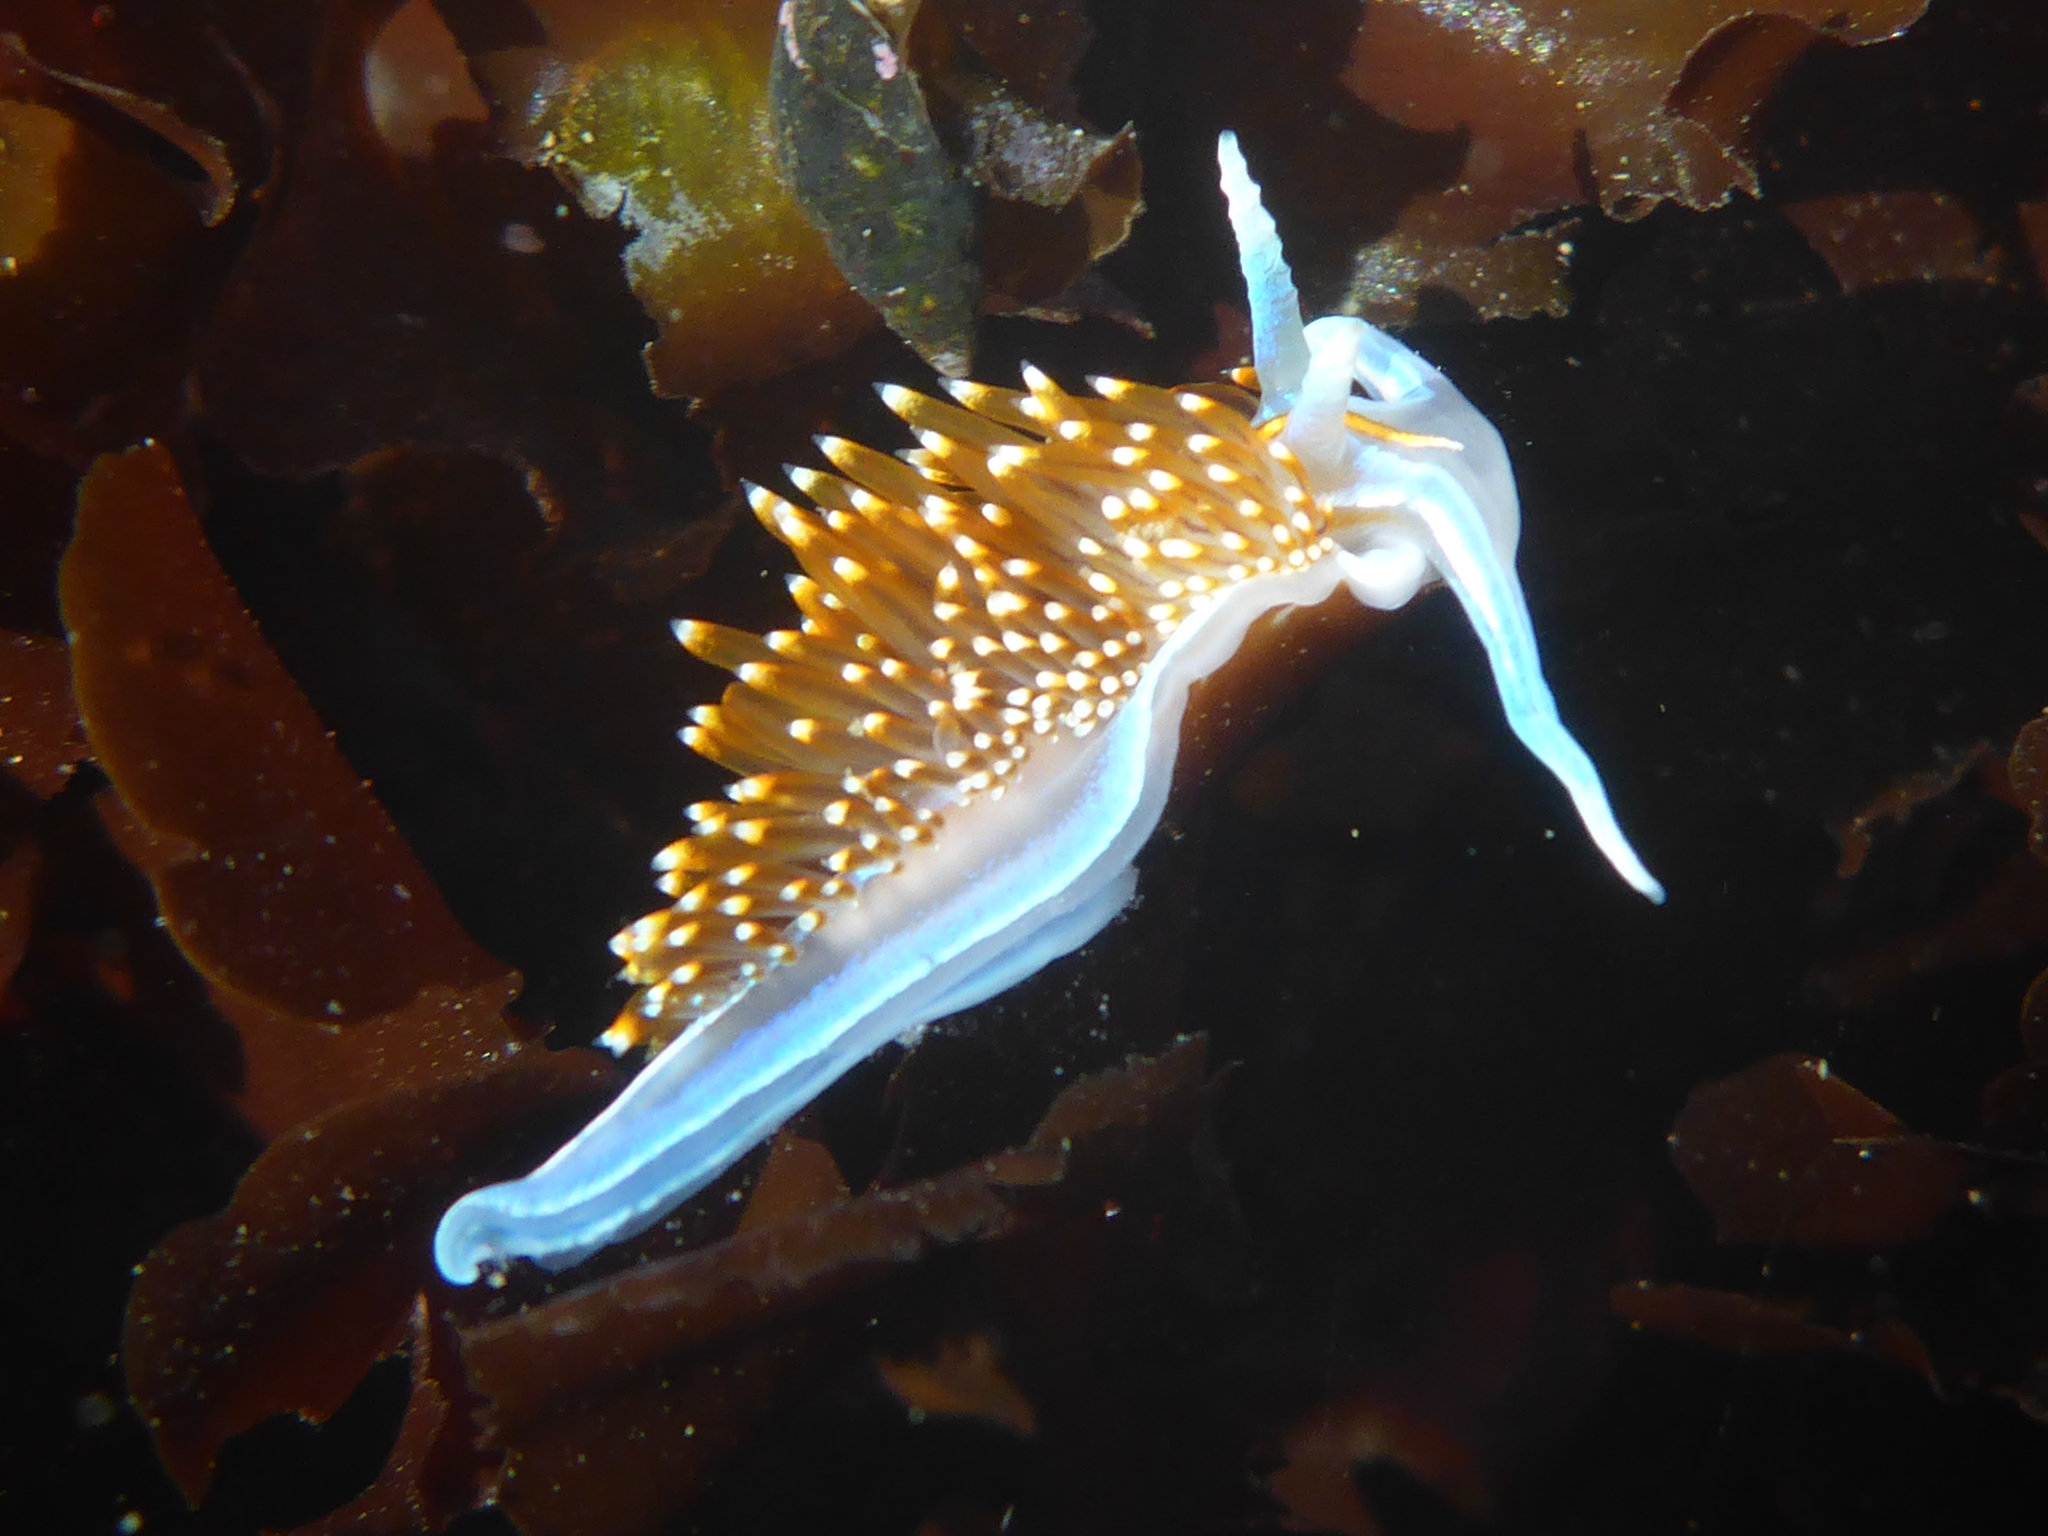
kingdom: Animalia
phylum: Mollusca
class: Gastropoda
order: Nudibranchia
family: Myrrhinidae
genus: Hermissenda
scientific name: Hermissenda opalescens
